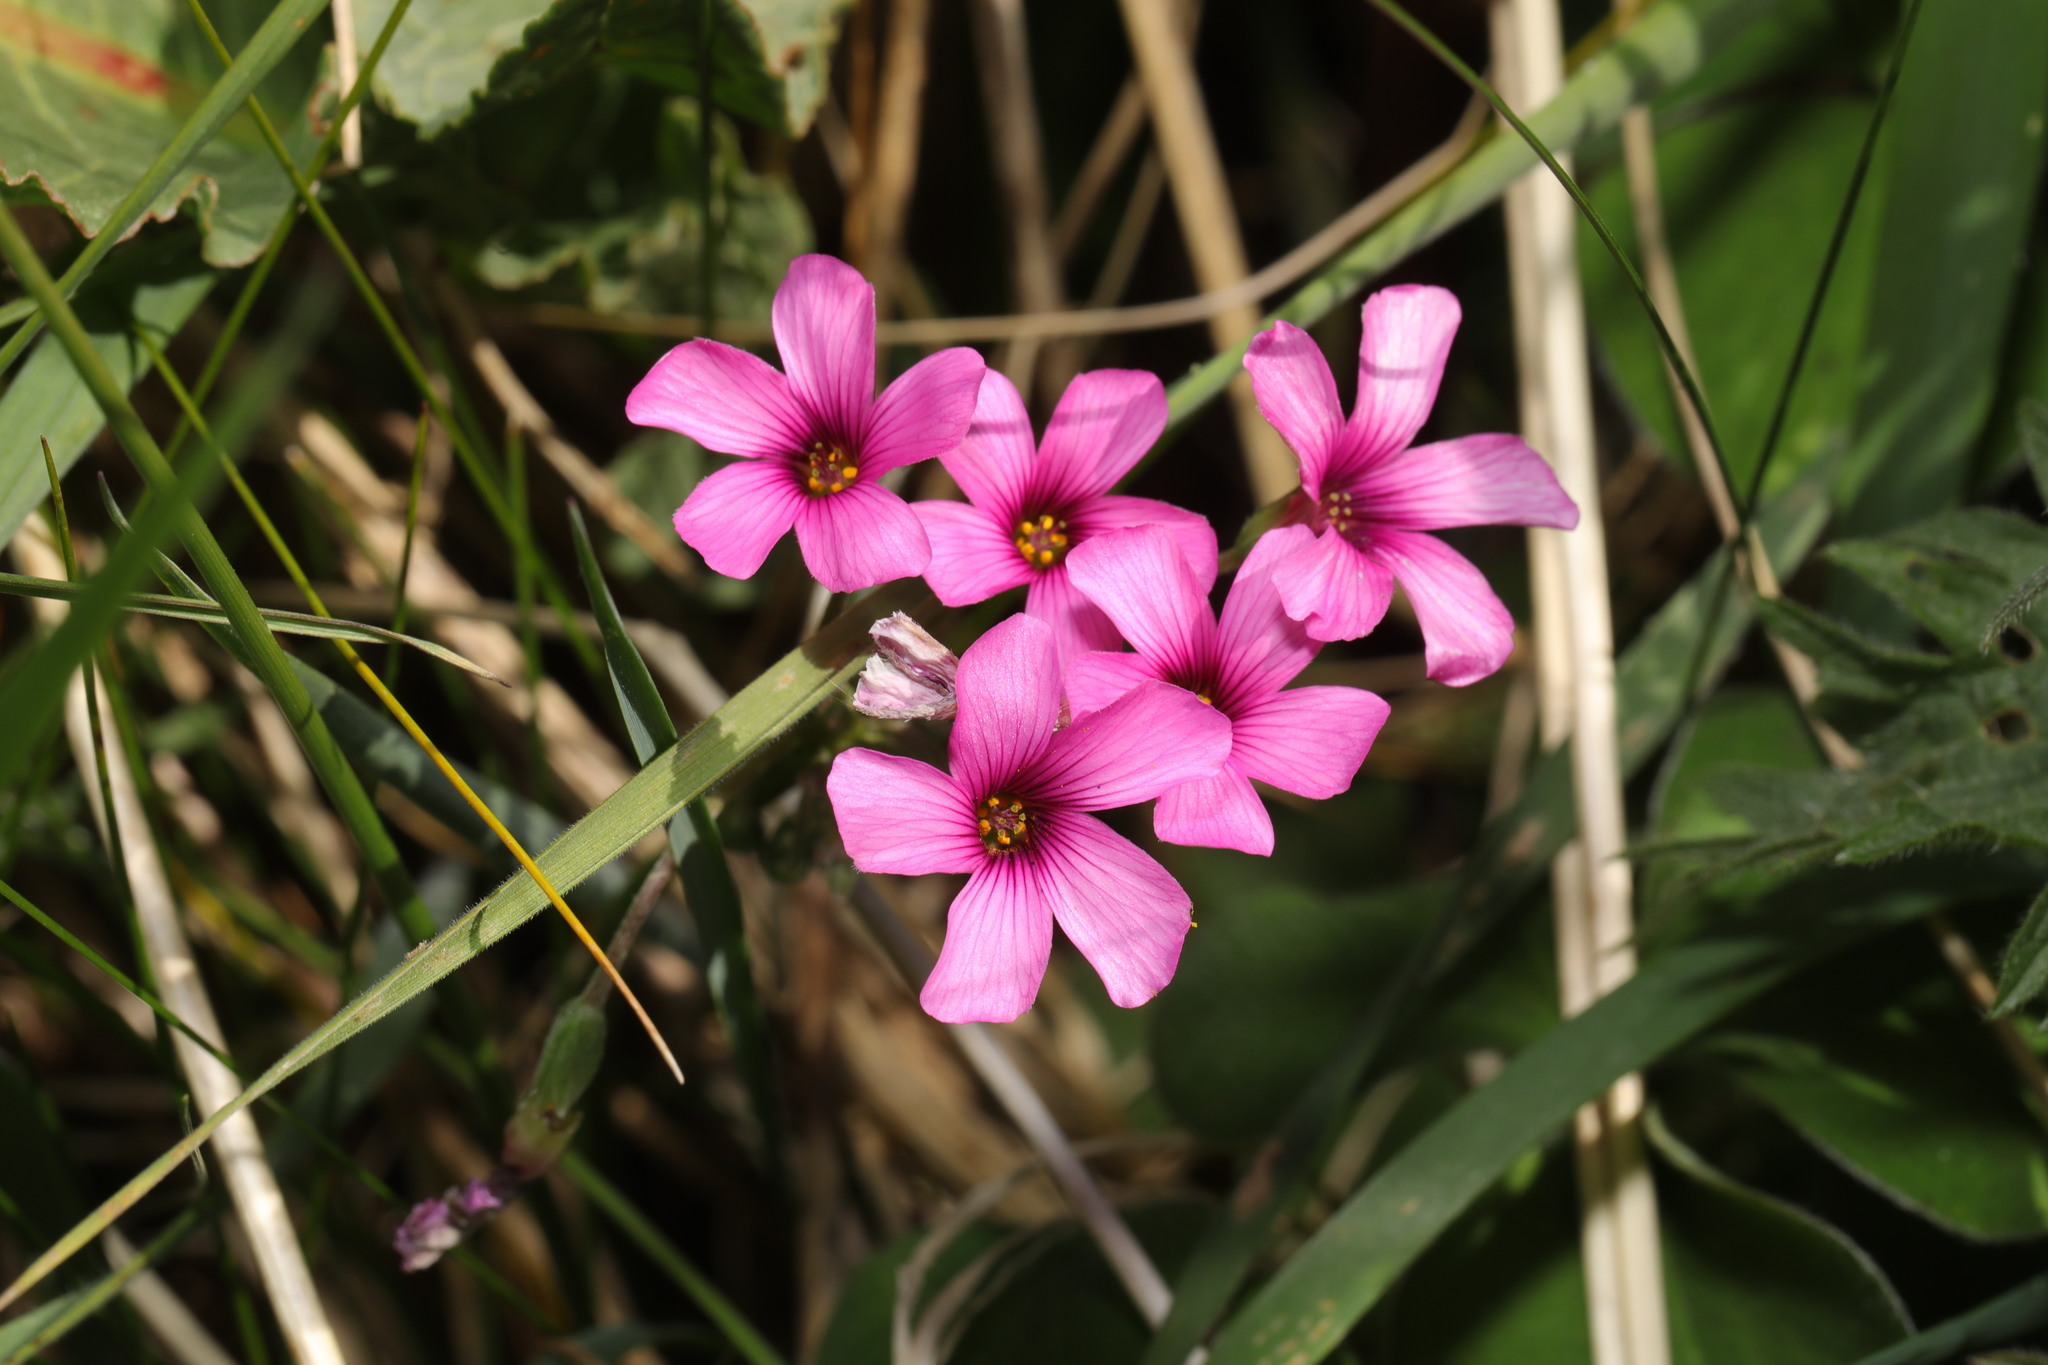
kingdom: Plantae
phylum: Tracheophyta
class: Magnoliopsida
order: Oxalidales
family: Oxalidaceae
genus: Oxalis
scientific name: Oxalis articulata
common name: Pink-sorrel
